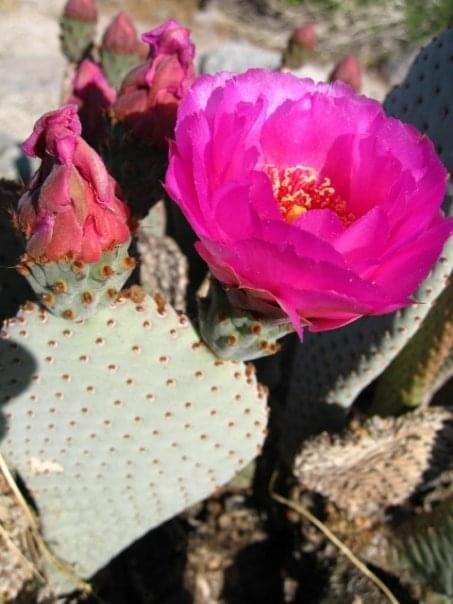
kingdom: Plantae
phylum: Tracheophyta
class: Magnoliopsida
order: Caryophyllales
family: Cactaceae
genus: Opuntia
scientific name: Opuntia basilaris
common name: Beavertail prickly-pear
